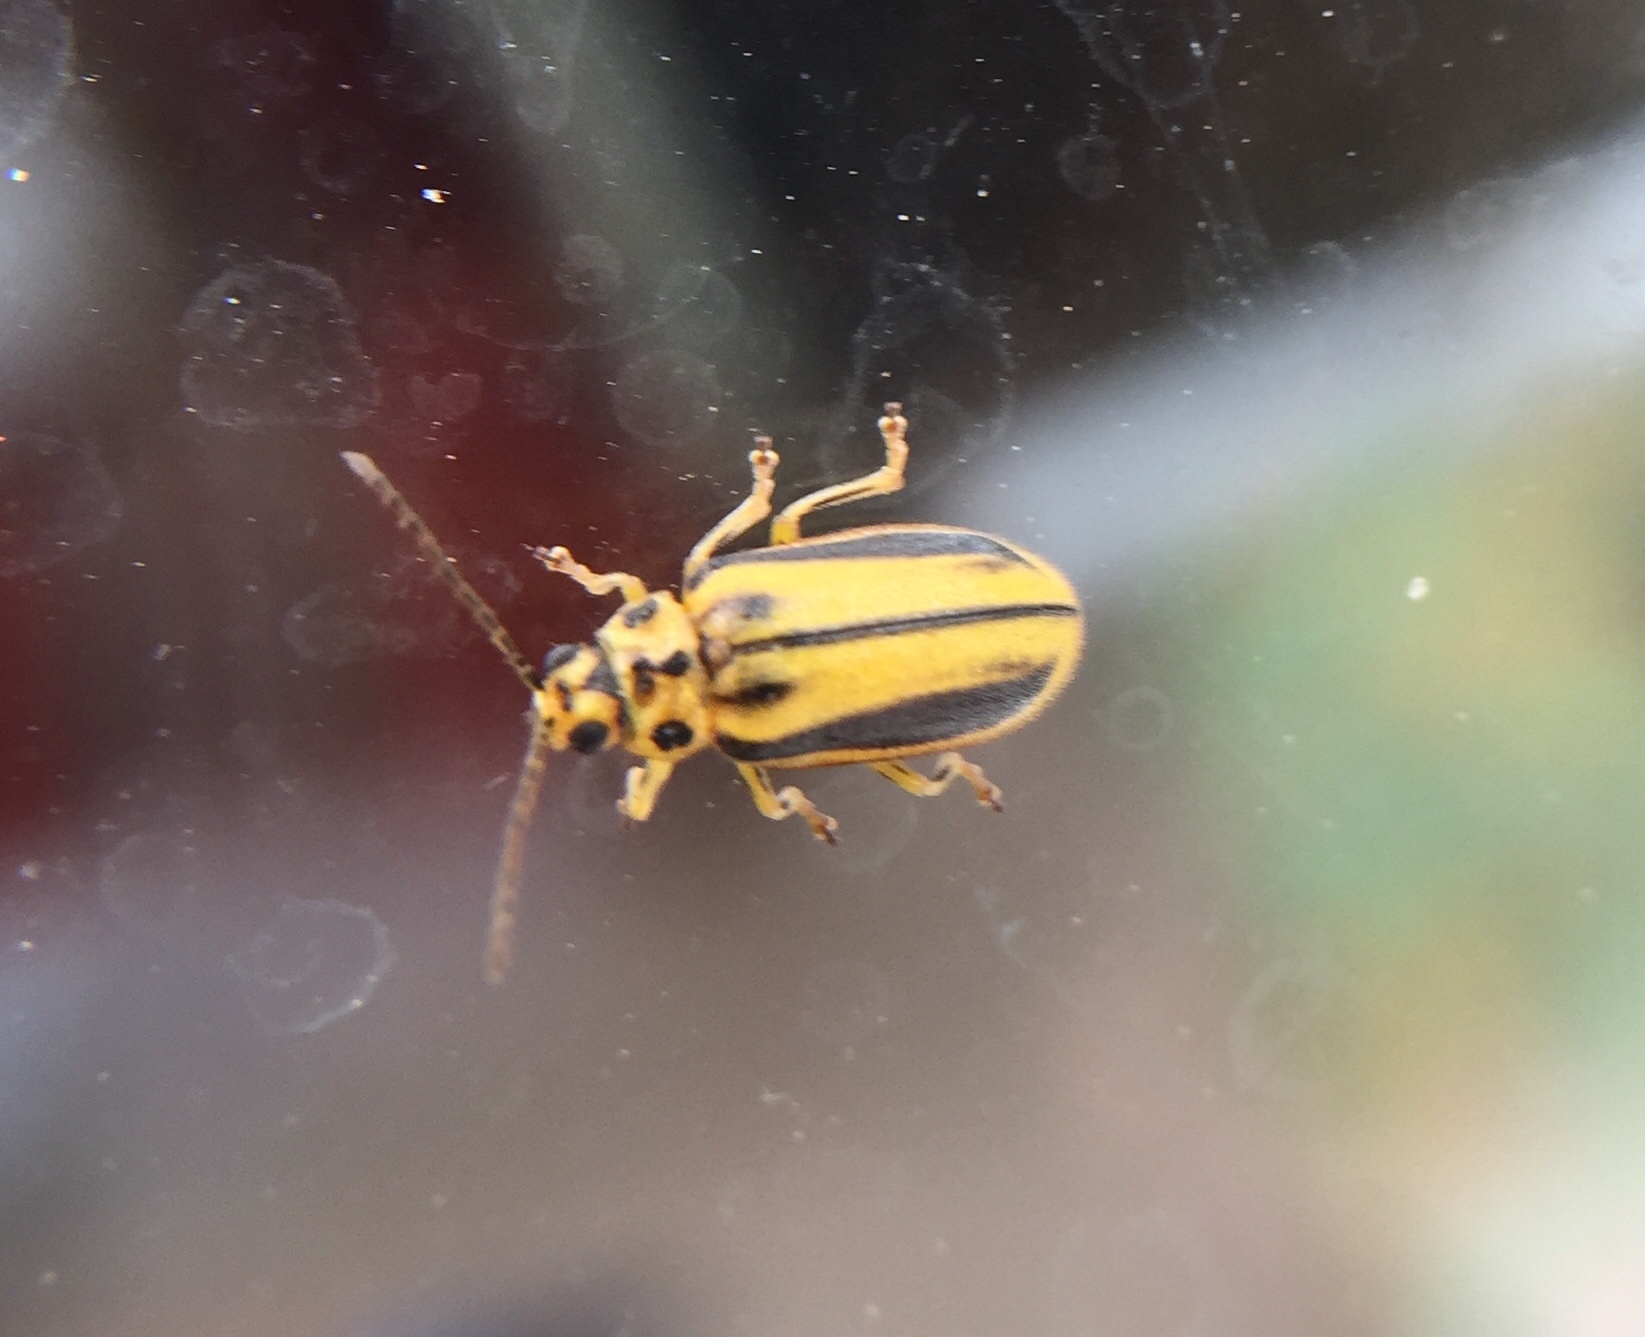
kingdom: Animalia
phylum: Arthropoda
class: Insecta
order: Coleoptera
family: Chrysomelidae
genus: Xanthogaleruca
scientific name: Xanthogaleruca luteola
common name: Elm leaf beetle
